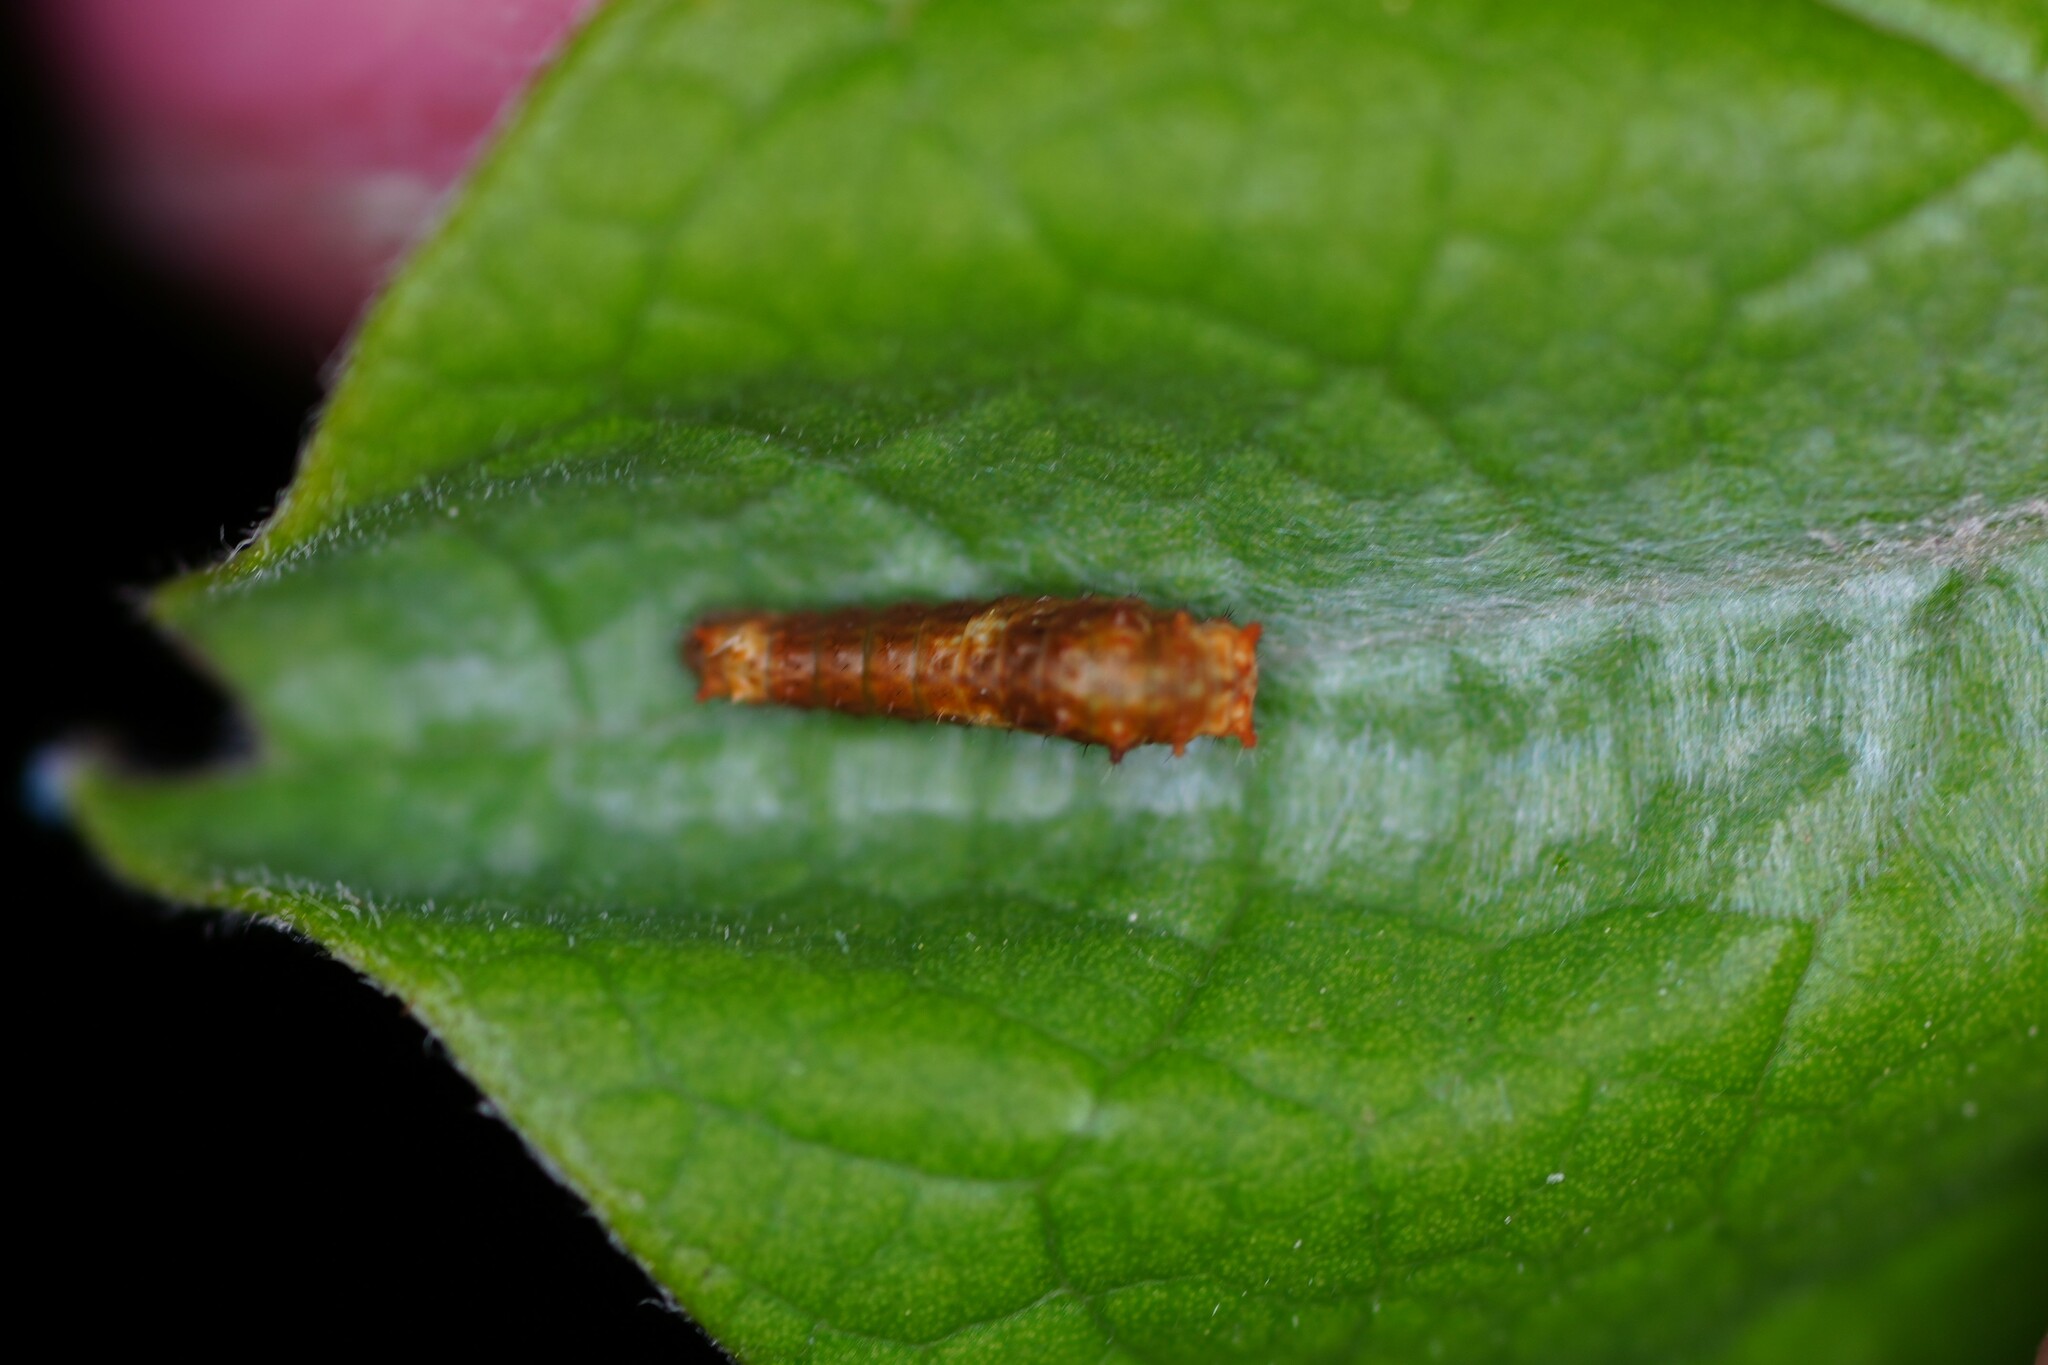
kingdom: Animalia
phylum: Arthropoda
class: Insecta
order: Lepidoptera
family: Papilionidae
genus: Papilio
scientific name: Papilio troilus
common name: Spicebush swallowtail
